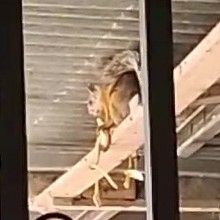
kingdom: Animalia
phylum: Chordata
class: Mammalia
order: Rodentia
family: Sciuridae
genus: Sciurus
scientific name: Sciurus variegatoides
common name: Variegated squirrel
